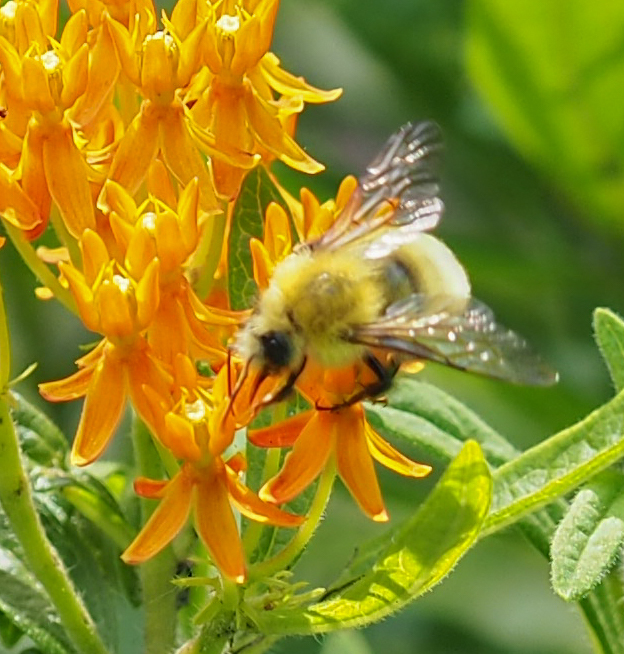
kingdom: Animalia
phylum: Arthropoda
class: Insecta
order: Hymenoptera
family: Apidae
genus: Bombus
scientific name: Bombus perplexus
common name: Confusing bumble bee
